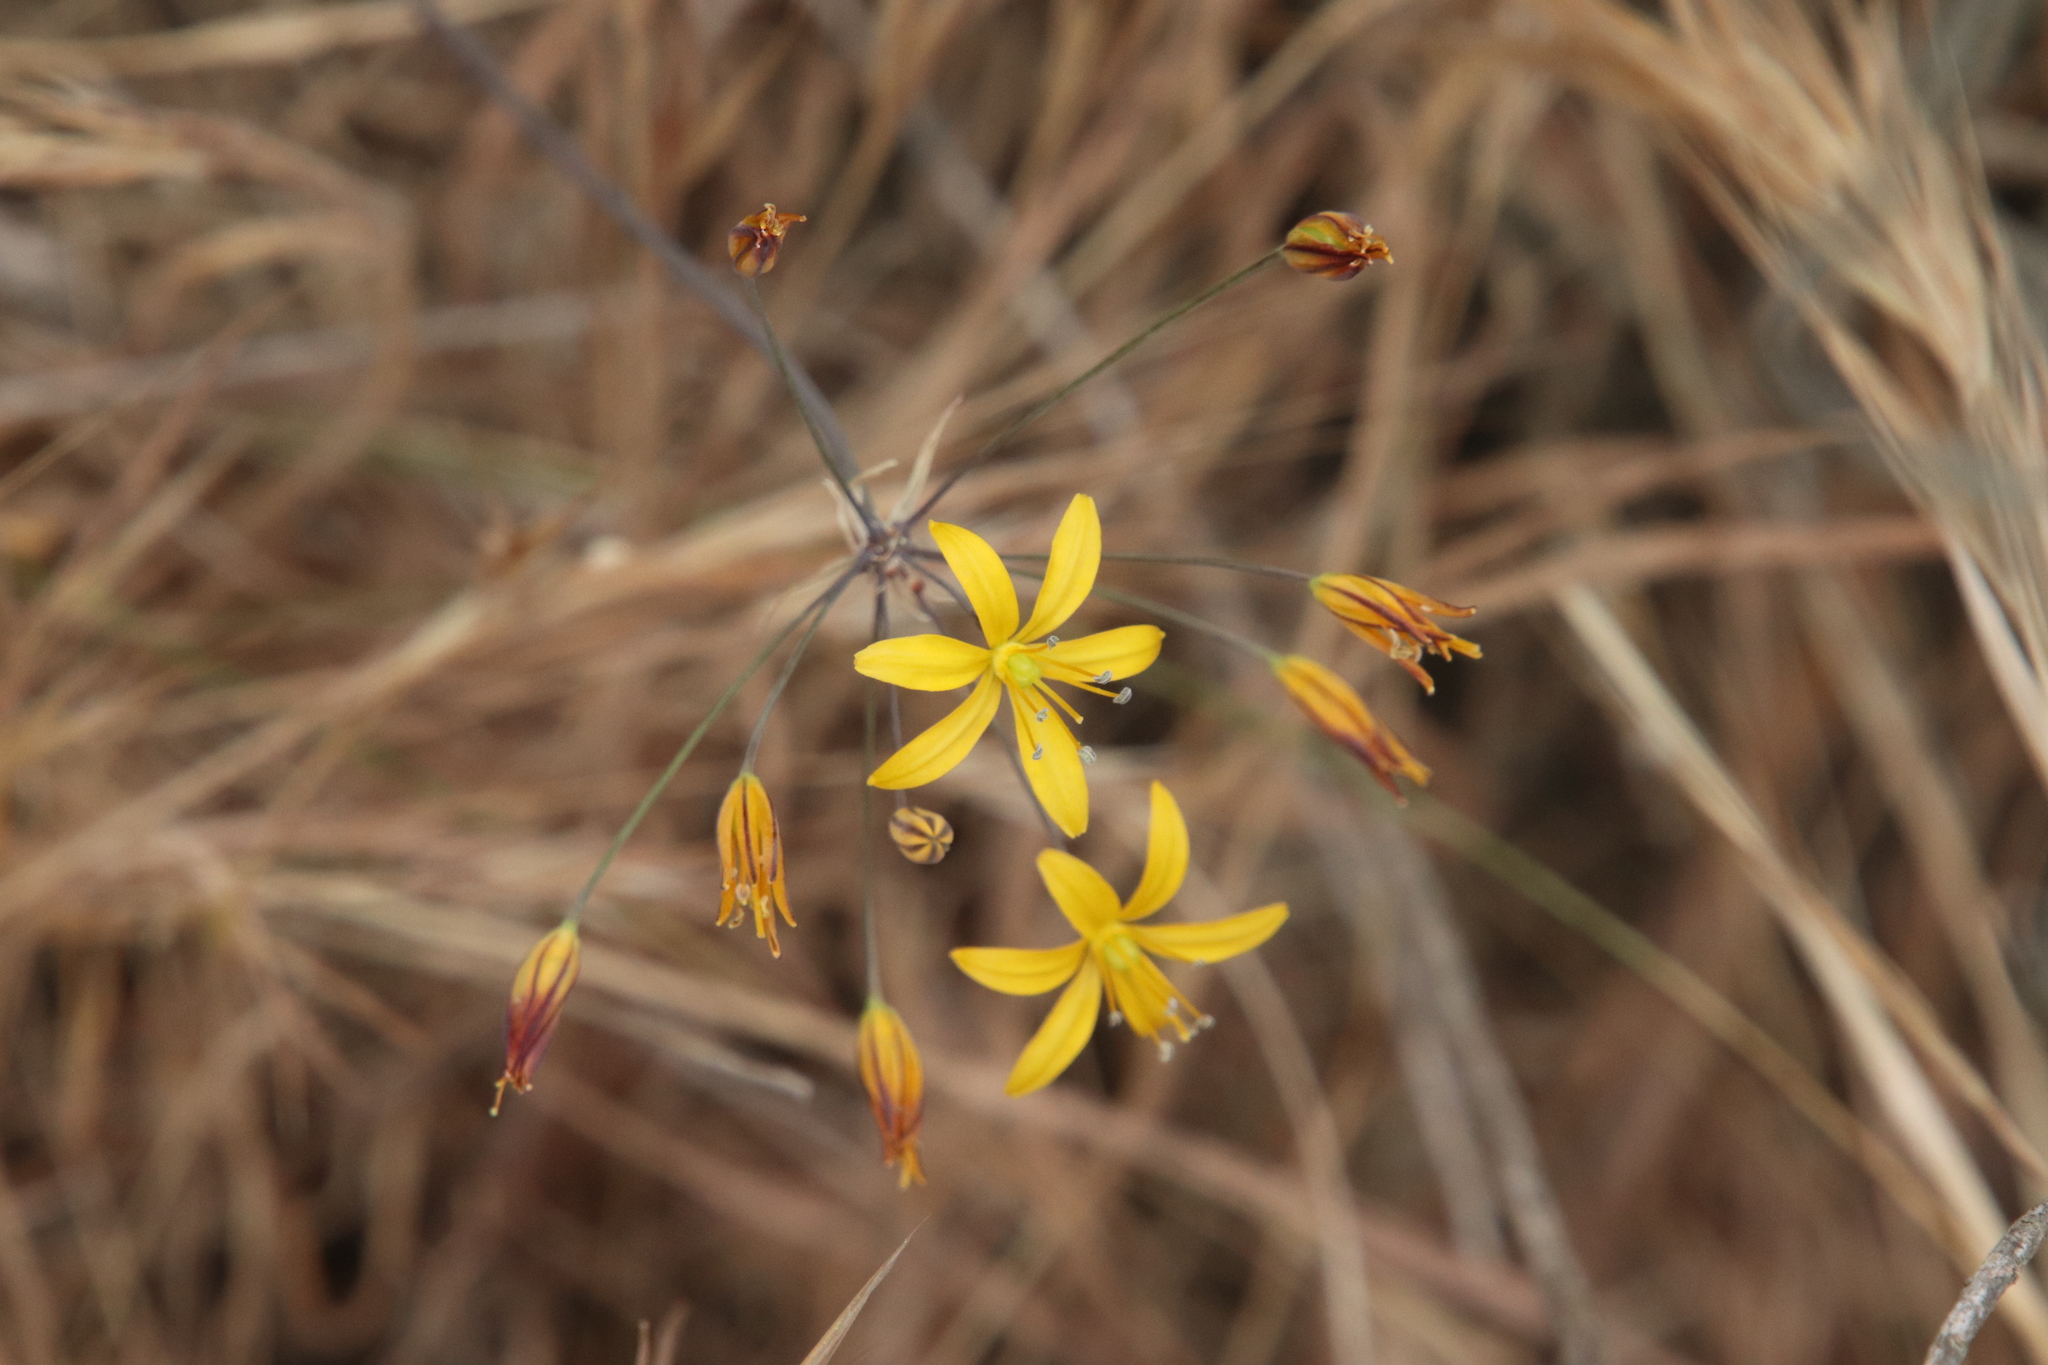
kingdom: Plantae
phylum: Tracheophyta
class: Liliopsida
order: Asparagales
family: Asparagaceae
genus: Bloomeria
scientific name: Bloomeria crocea
